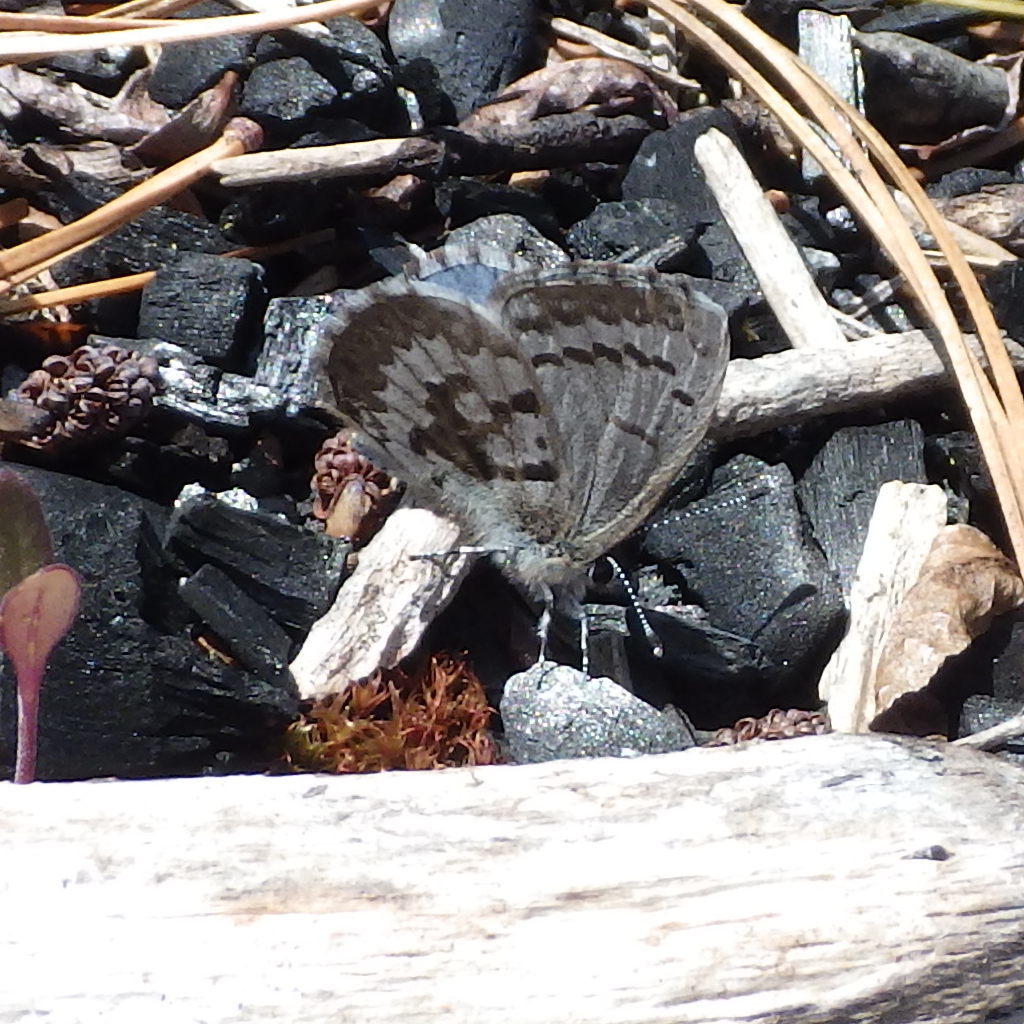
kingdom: Animalia
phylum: Arthropoda
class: Insecta
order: Lepidoptera
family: Lycaenidae
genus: Celastrina
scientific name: Celastrina lucia
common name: Lucia azure
